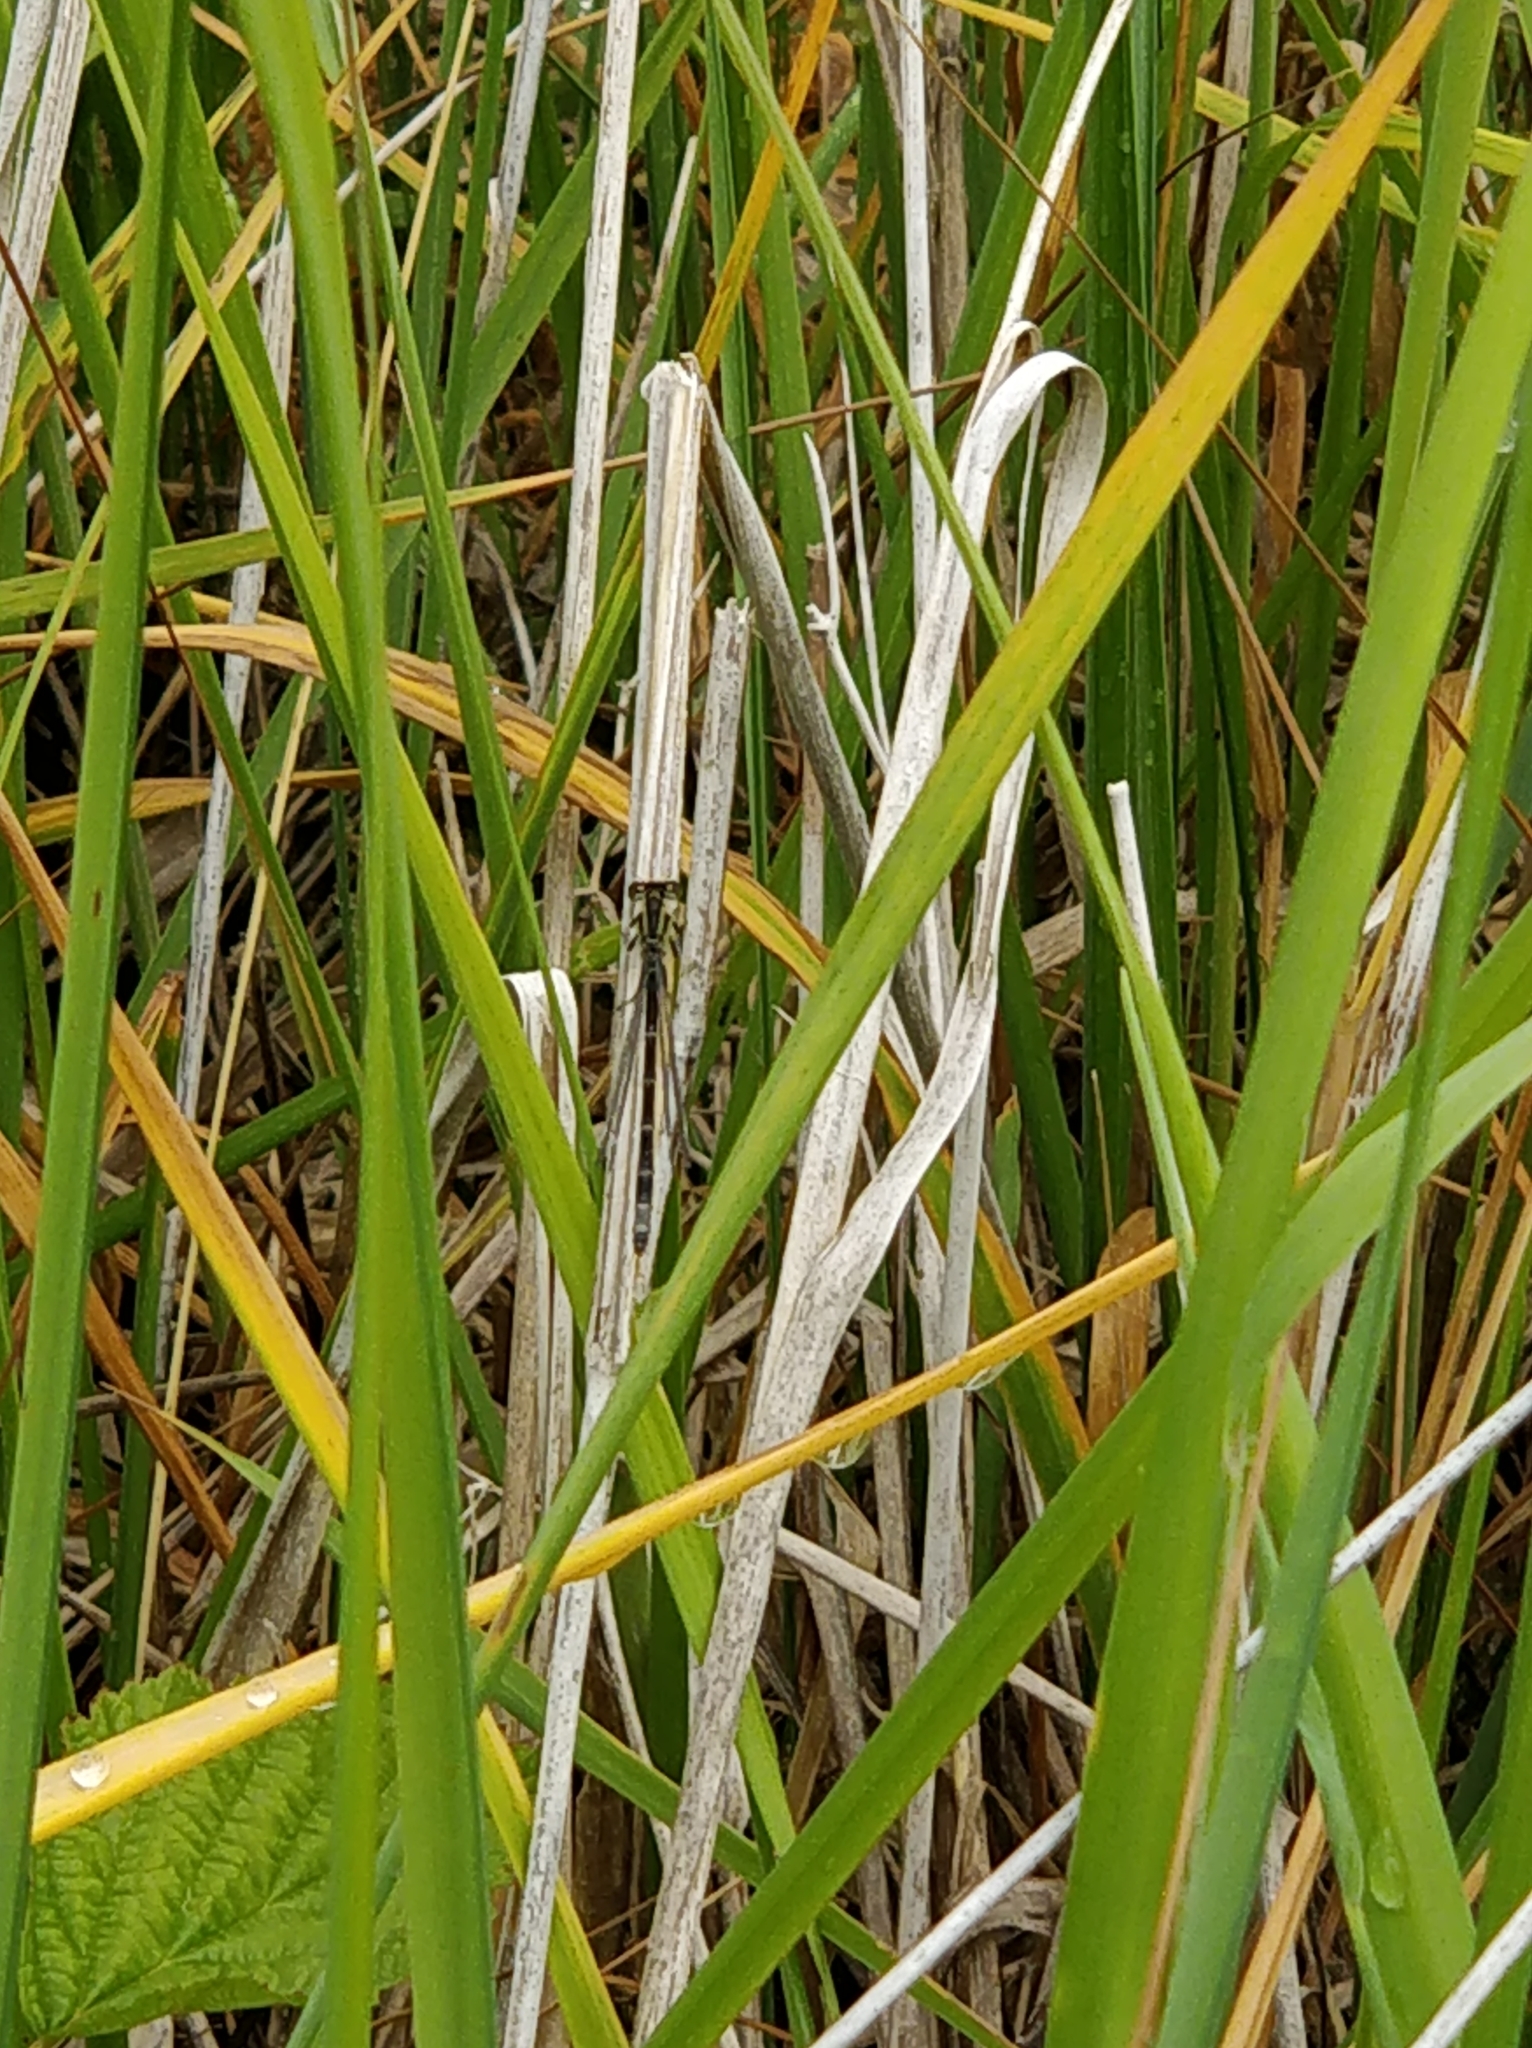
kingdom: Animalia
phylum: Arthropoda
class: Insecta
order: Odonata
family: Coenagrionidae
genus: Ischnura
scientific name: Ischnura elegans
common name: Blue-tailed damselfly
